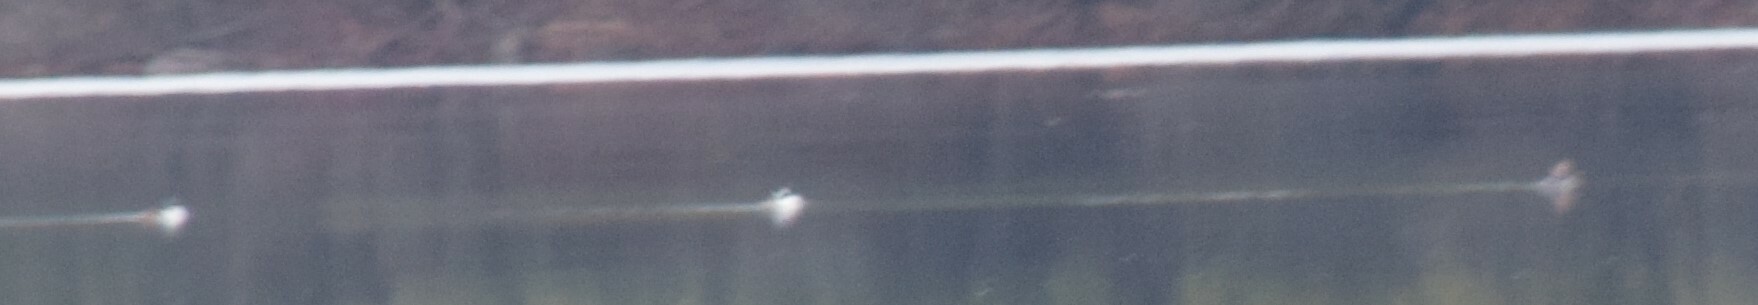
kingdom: Animalia
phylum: Chordata
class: Aves
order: Anseriformes
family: Anatidae
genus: Lophodytes
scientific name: Lophodytes cucullatus
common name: Hooded merganser
